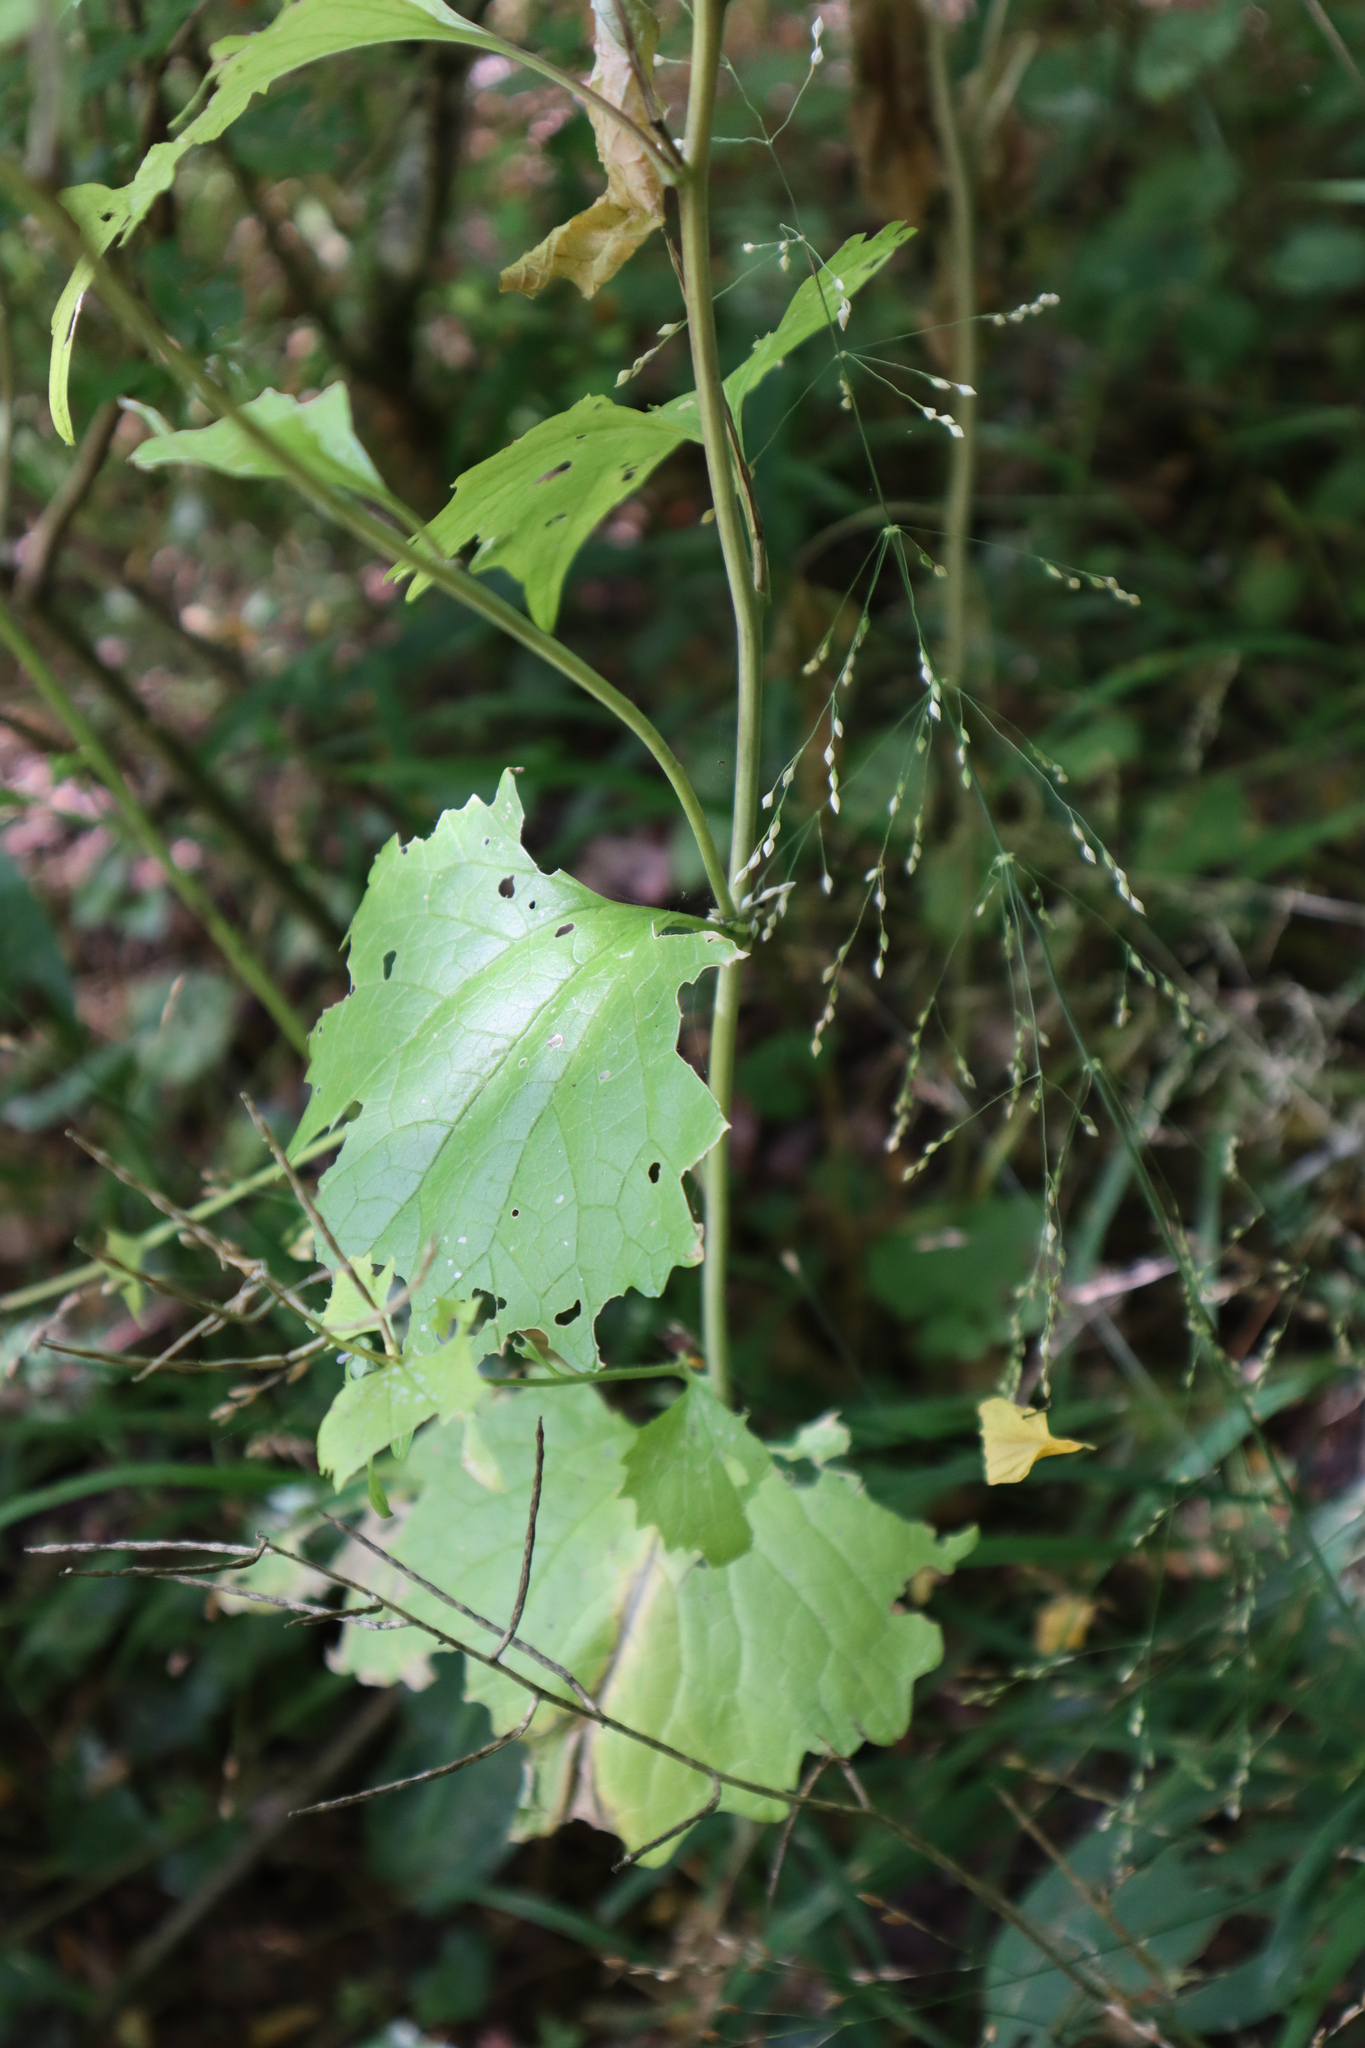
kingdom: Plantae
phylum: Tracheophyta
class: Magnoliopsida
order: Brassicales
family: Brassicaceae
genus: Alliaria
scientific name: Alliaria petiolata
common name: Garlic mustard
